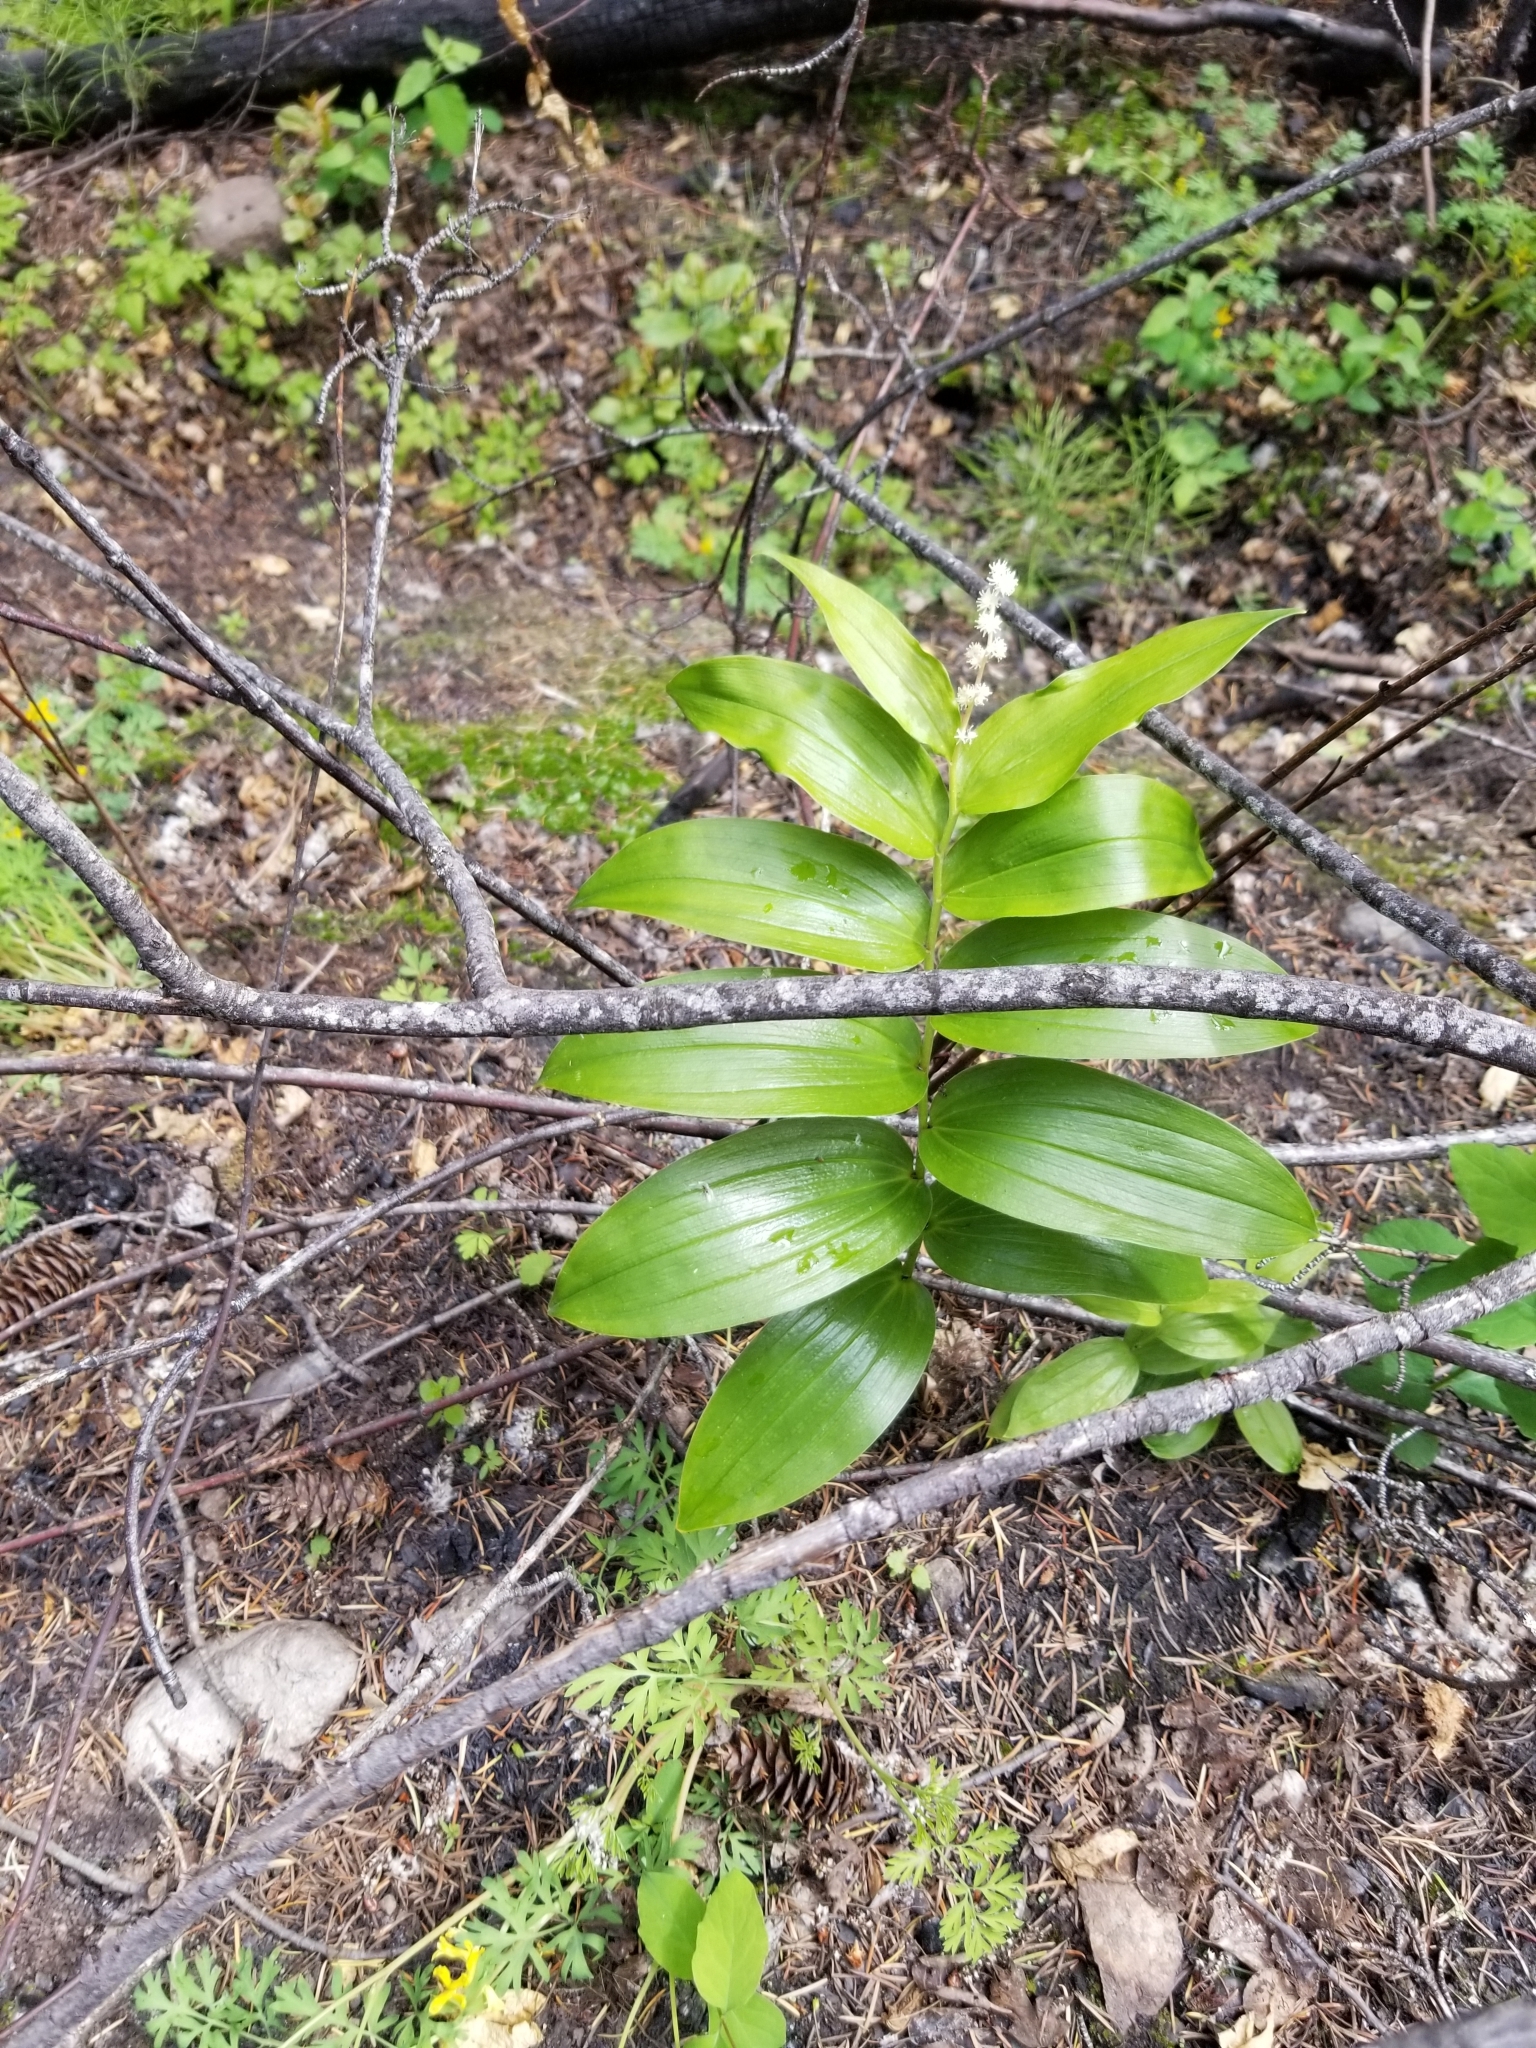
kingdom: Plantae
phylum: Tracheophyta
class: Liliopsida
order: Asparagales
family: Asparagaceae
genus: Maianthemum
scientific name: Maianthemum racemosum
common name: False spikenard
